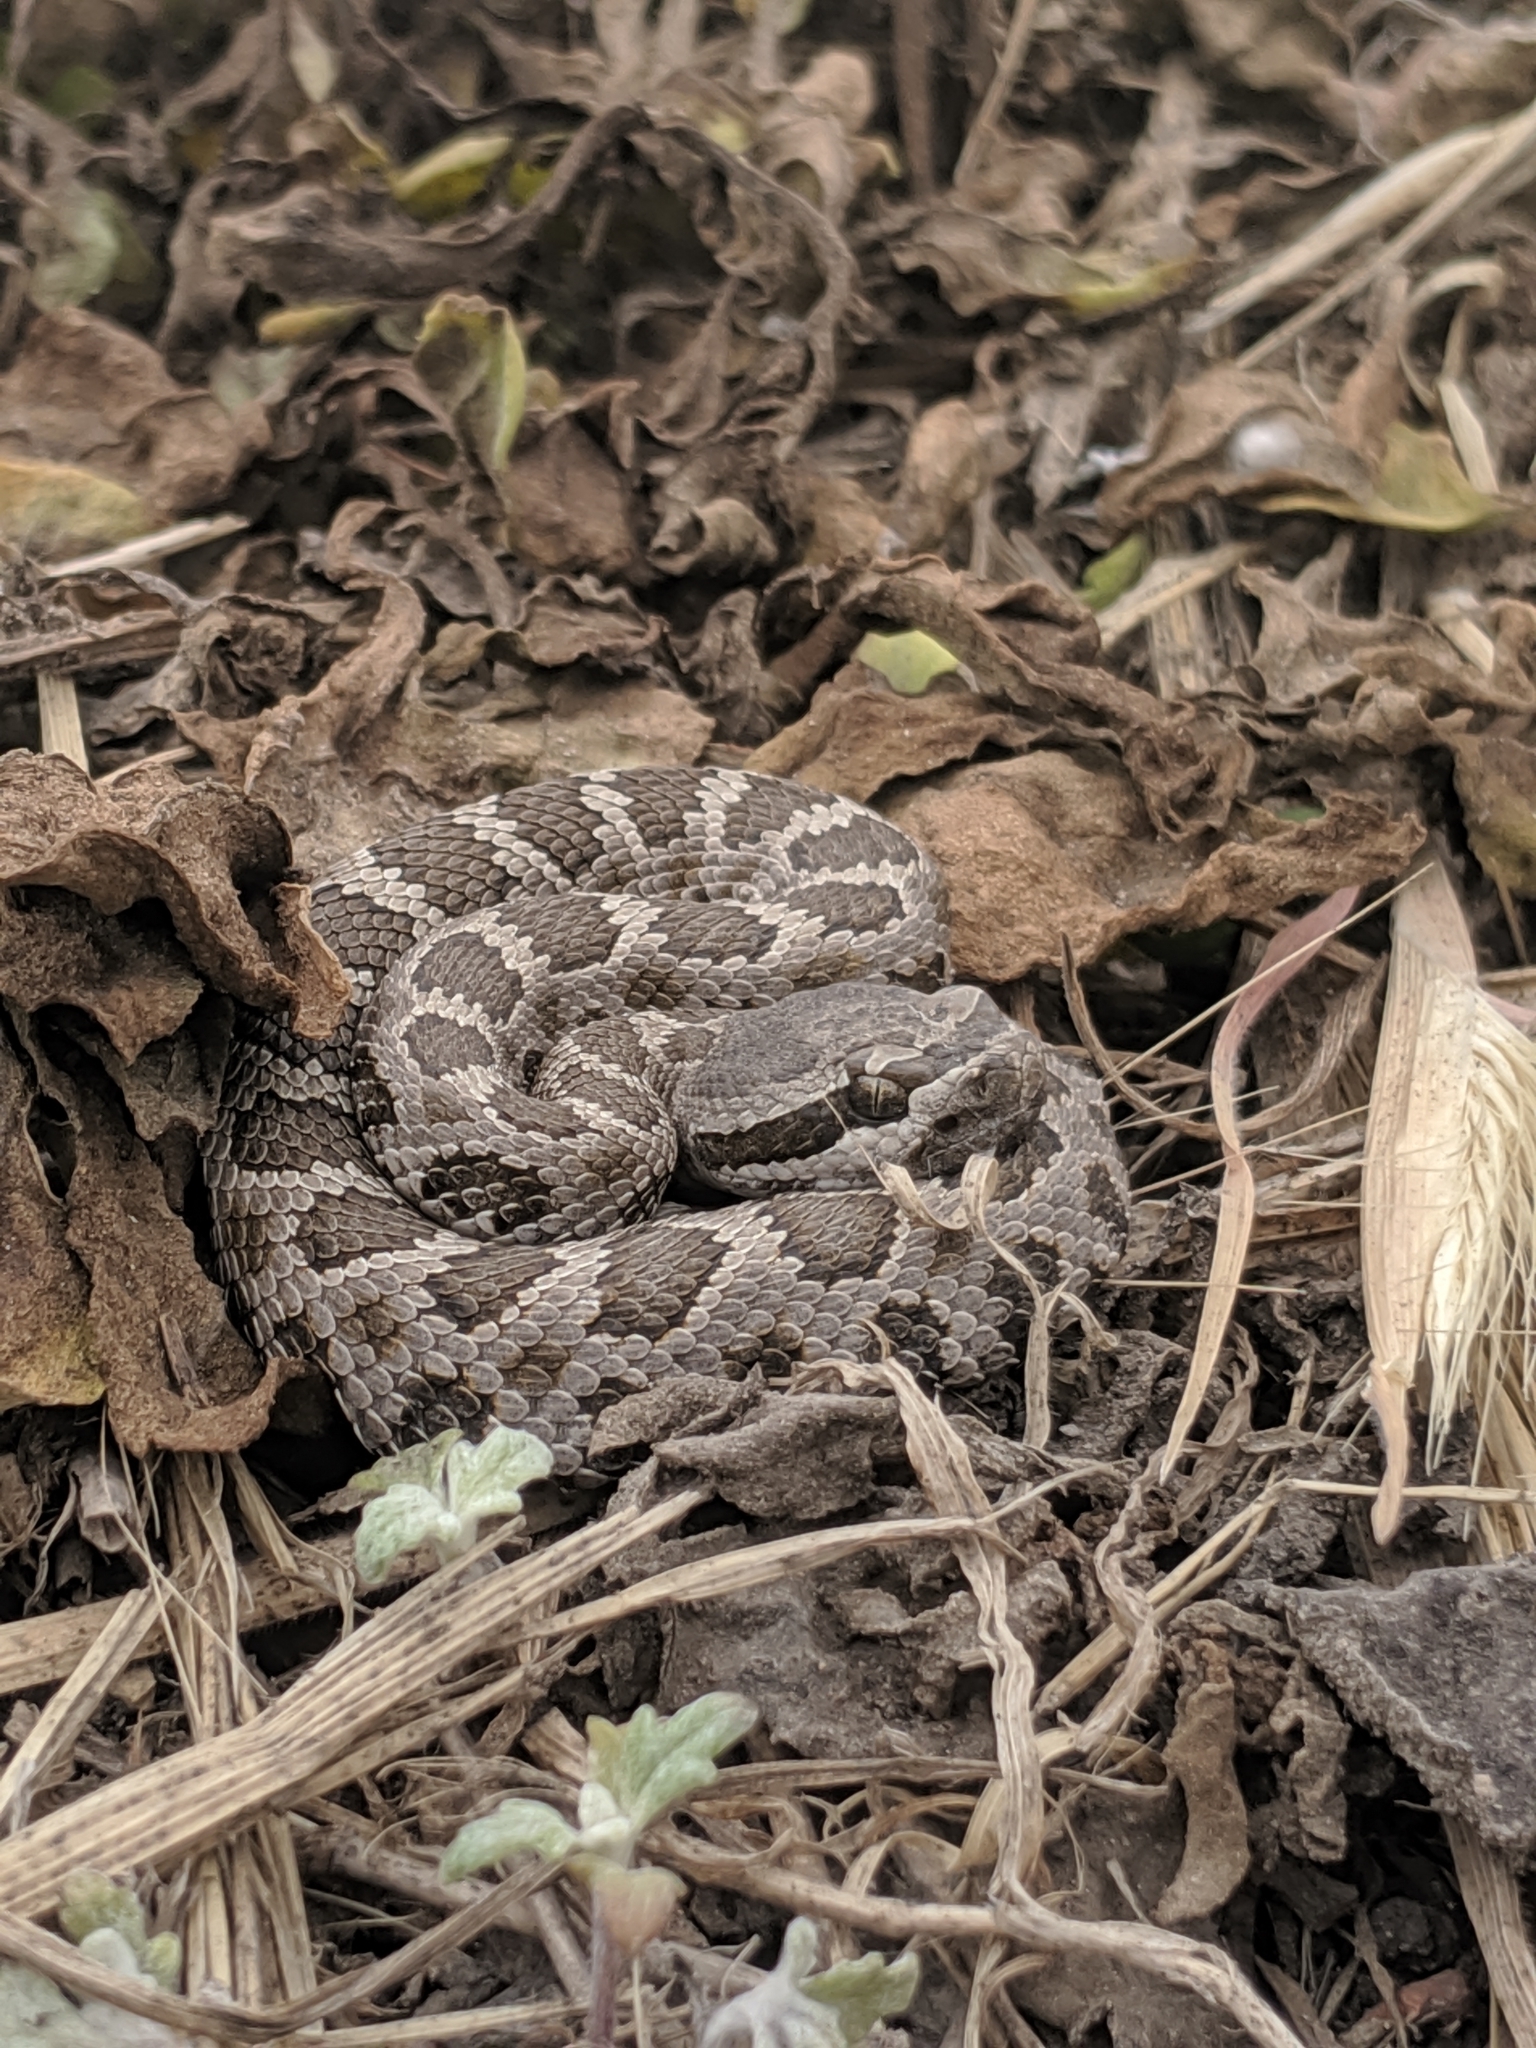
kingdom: Animalia
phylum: Chordata
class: Squamata
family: Viperidae
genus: Crotalus
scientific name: Crotalus oreganus
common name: Abyssus
